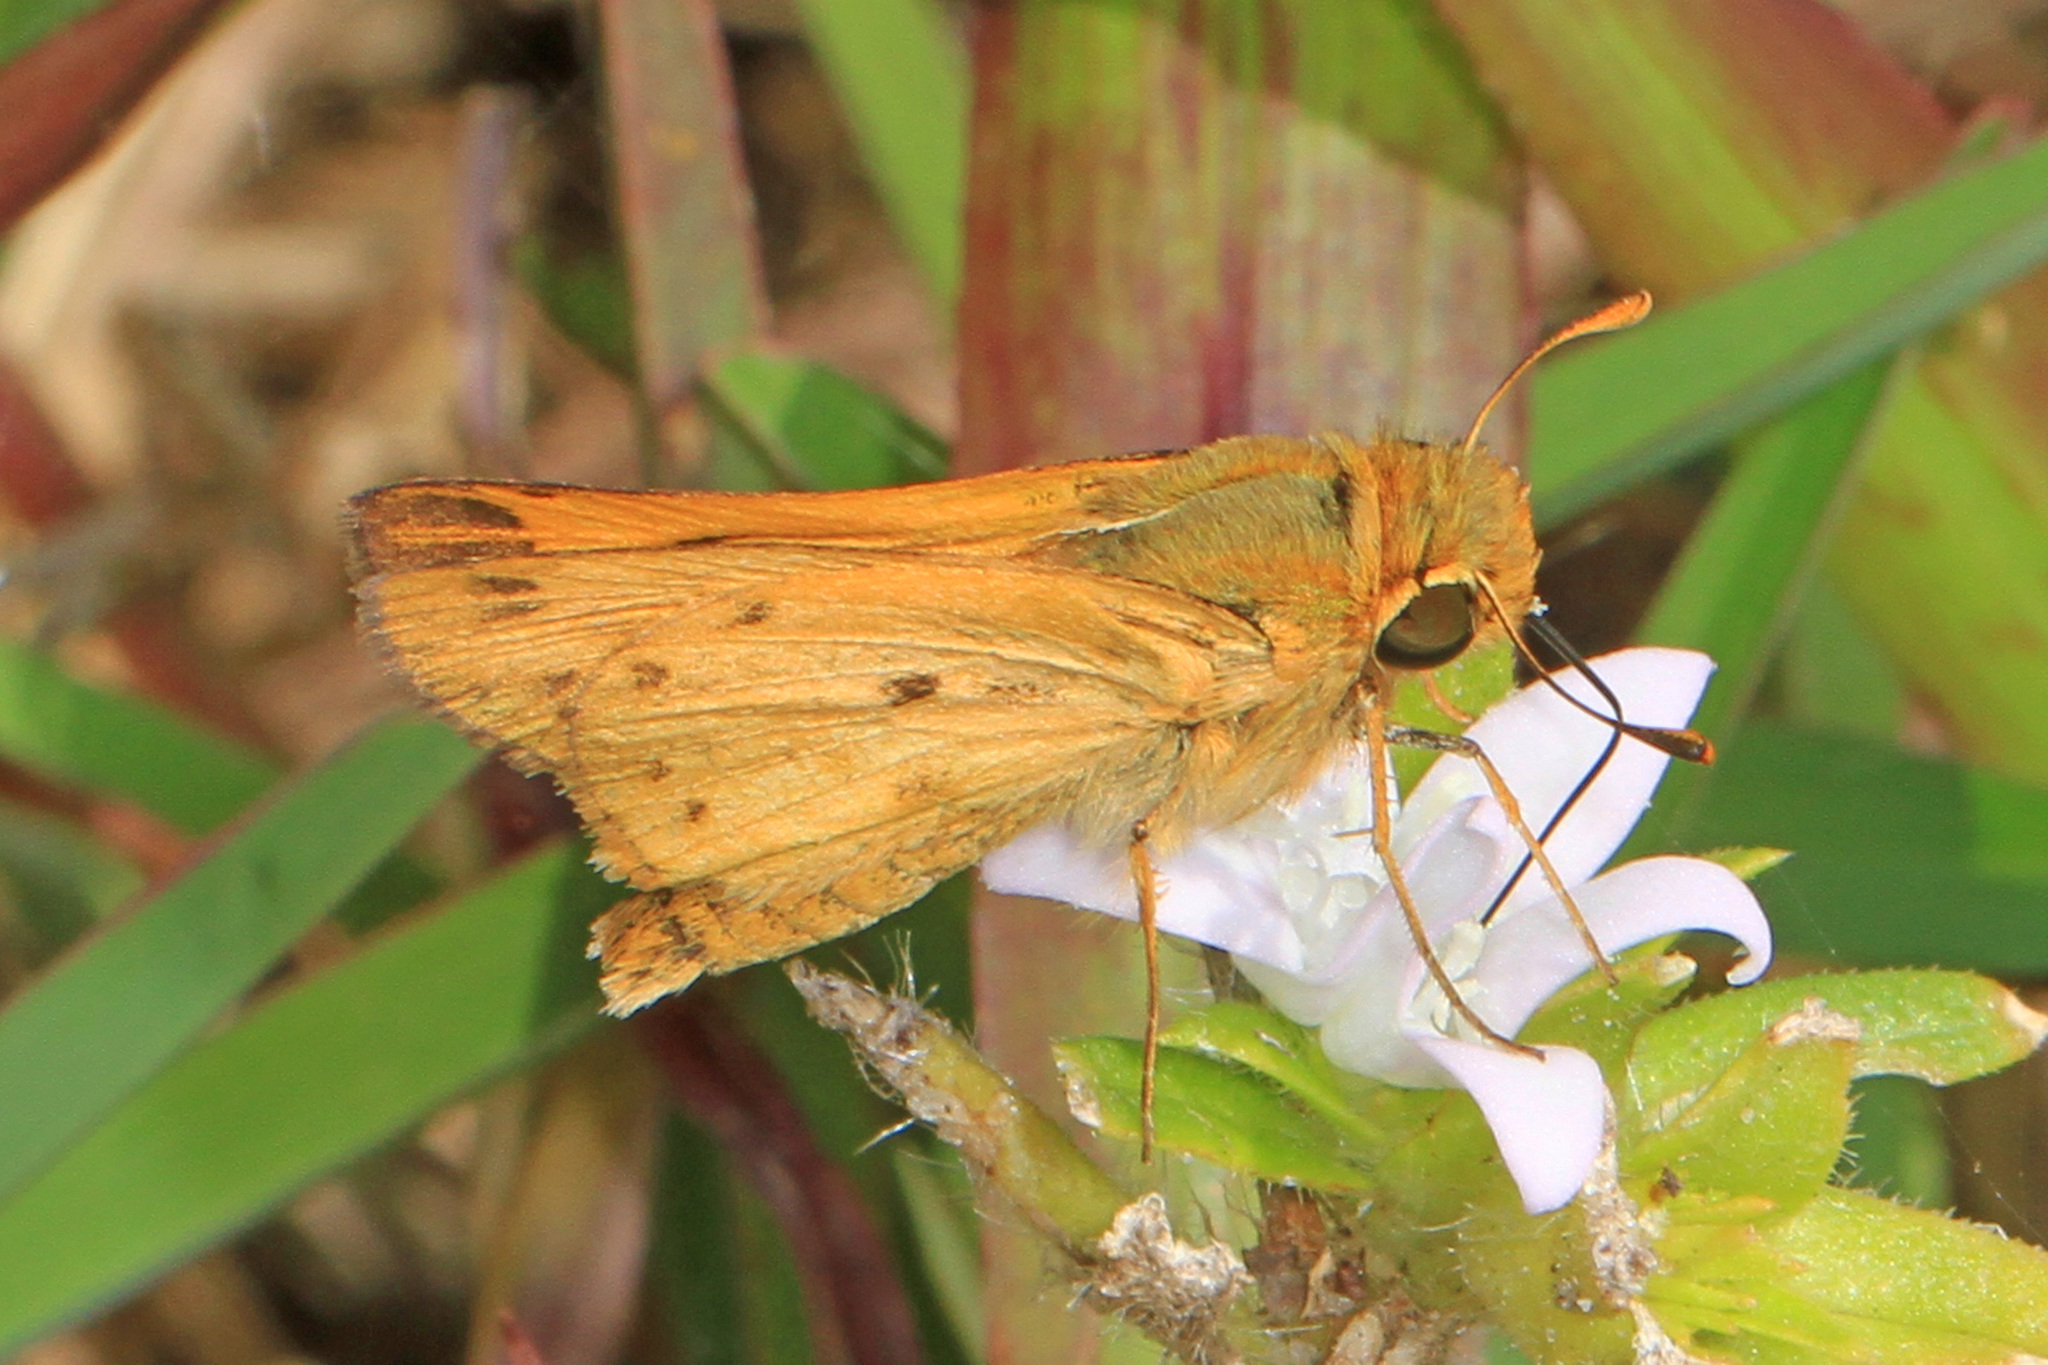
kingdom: Animalia
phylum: Arthropoda
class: Insecta
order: Lepidoptera
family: Hesperiidae
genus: Hylephila
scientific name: Hylephila phyleus
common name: Fiery skipper
